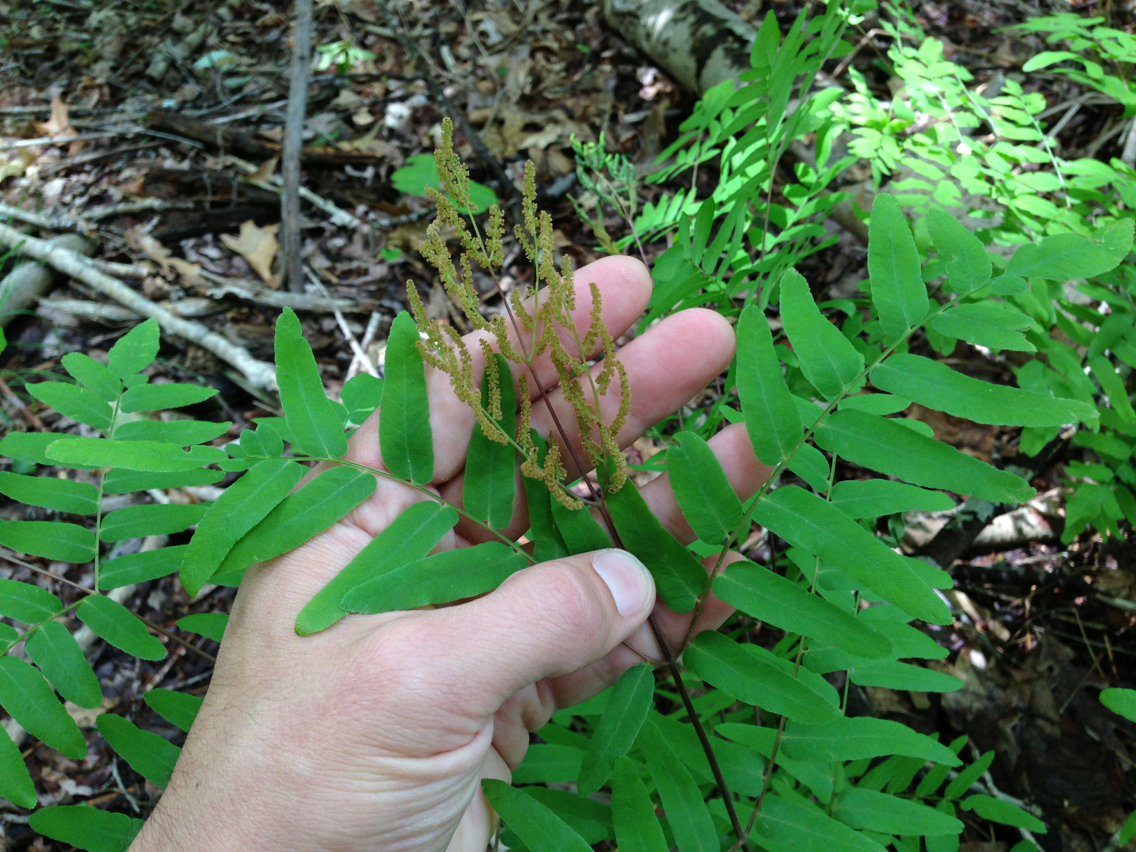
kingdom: Plantae
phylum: Tracheophyta
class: Polypodiopsida
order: Osmundales
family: Osmundaceae
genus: Osmunda
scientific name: Osmunda spectabilis
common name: American royal fern
